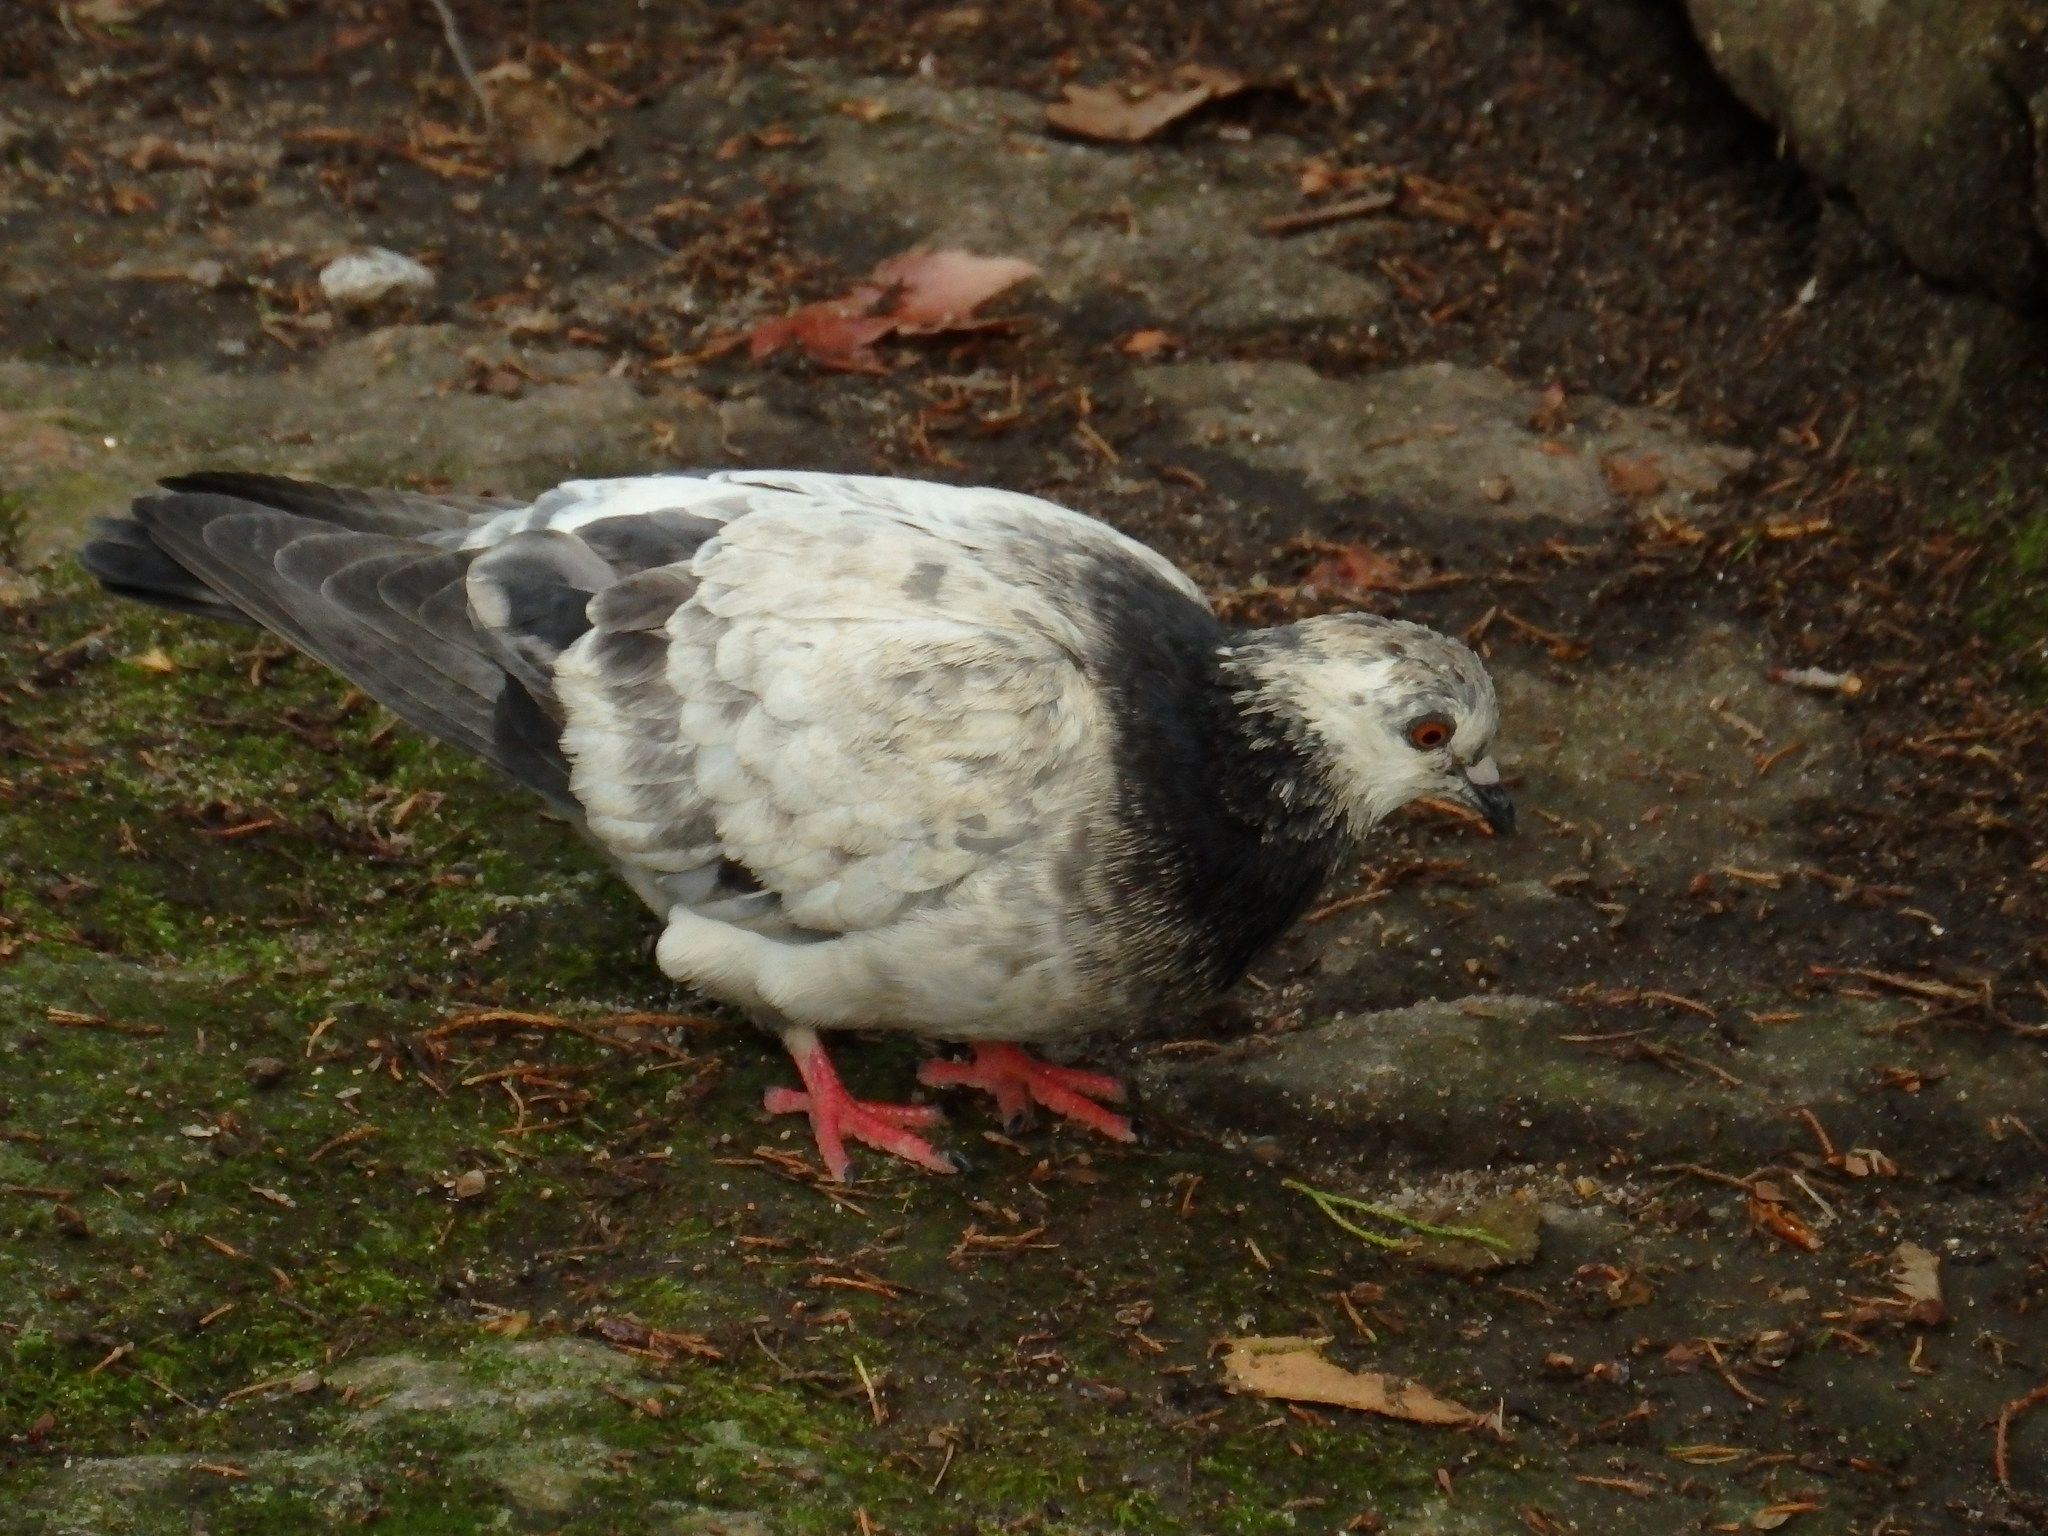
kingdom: Animalia
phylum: Chordata
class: Aves
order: Columbiformes
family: Columbidae
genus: Columba
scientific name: Columba livia
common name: Rock pigeon
